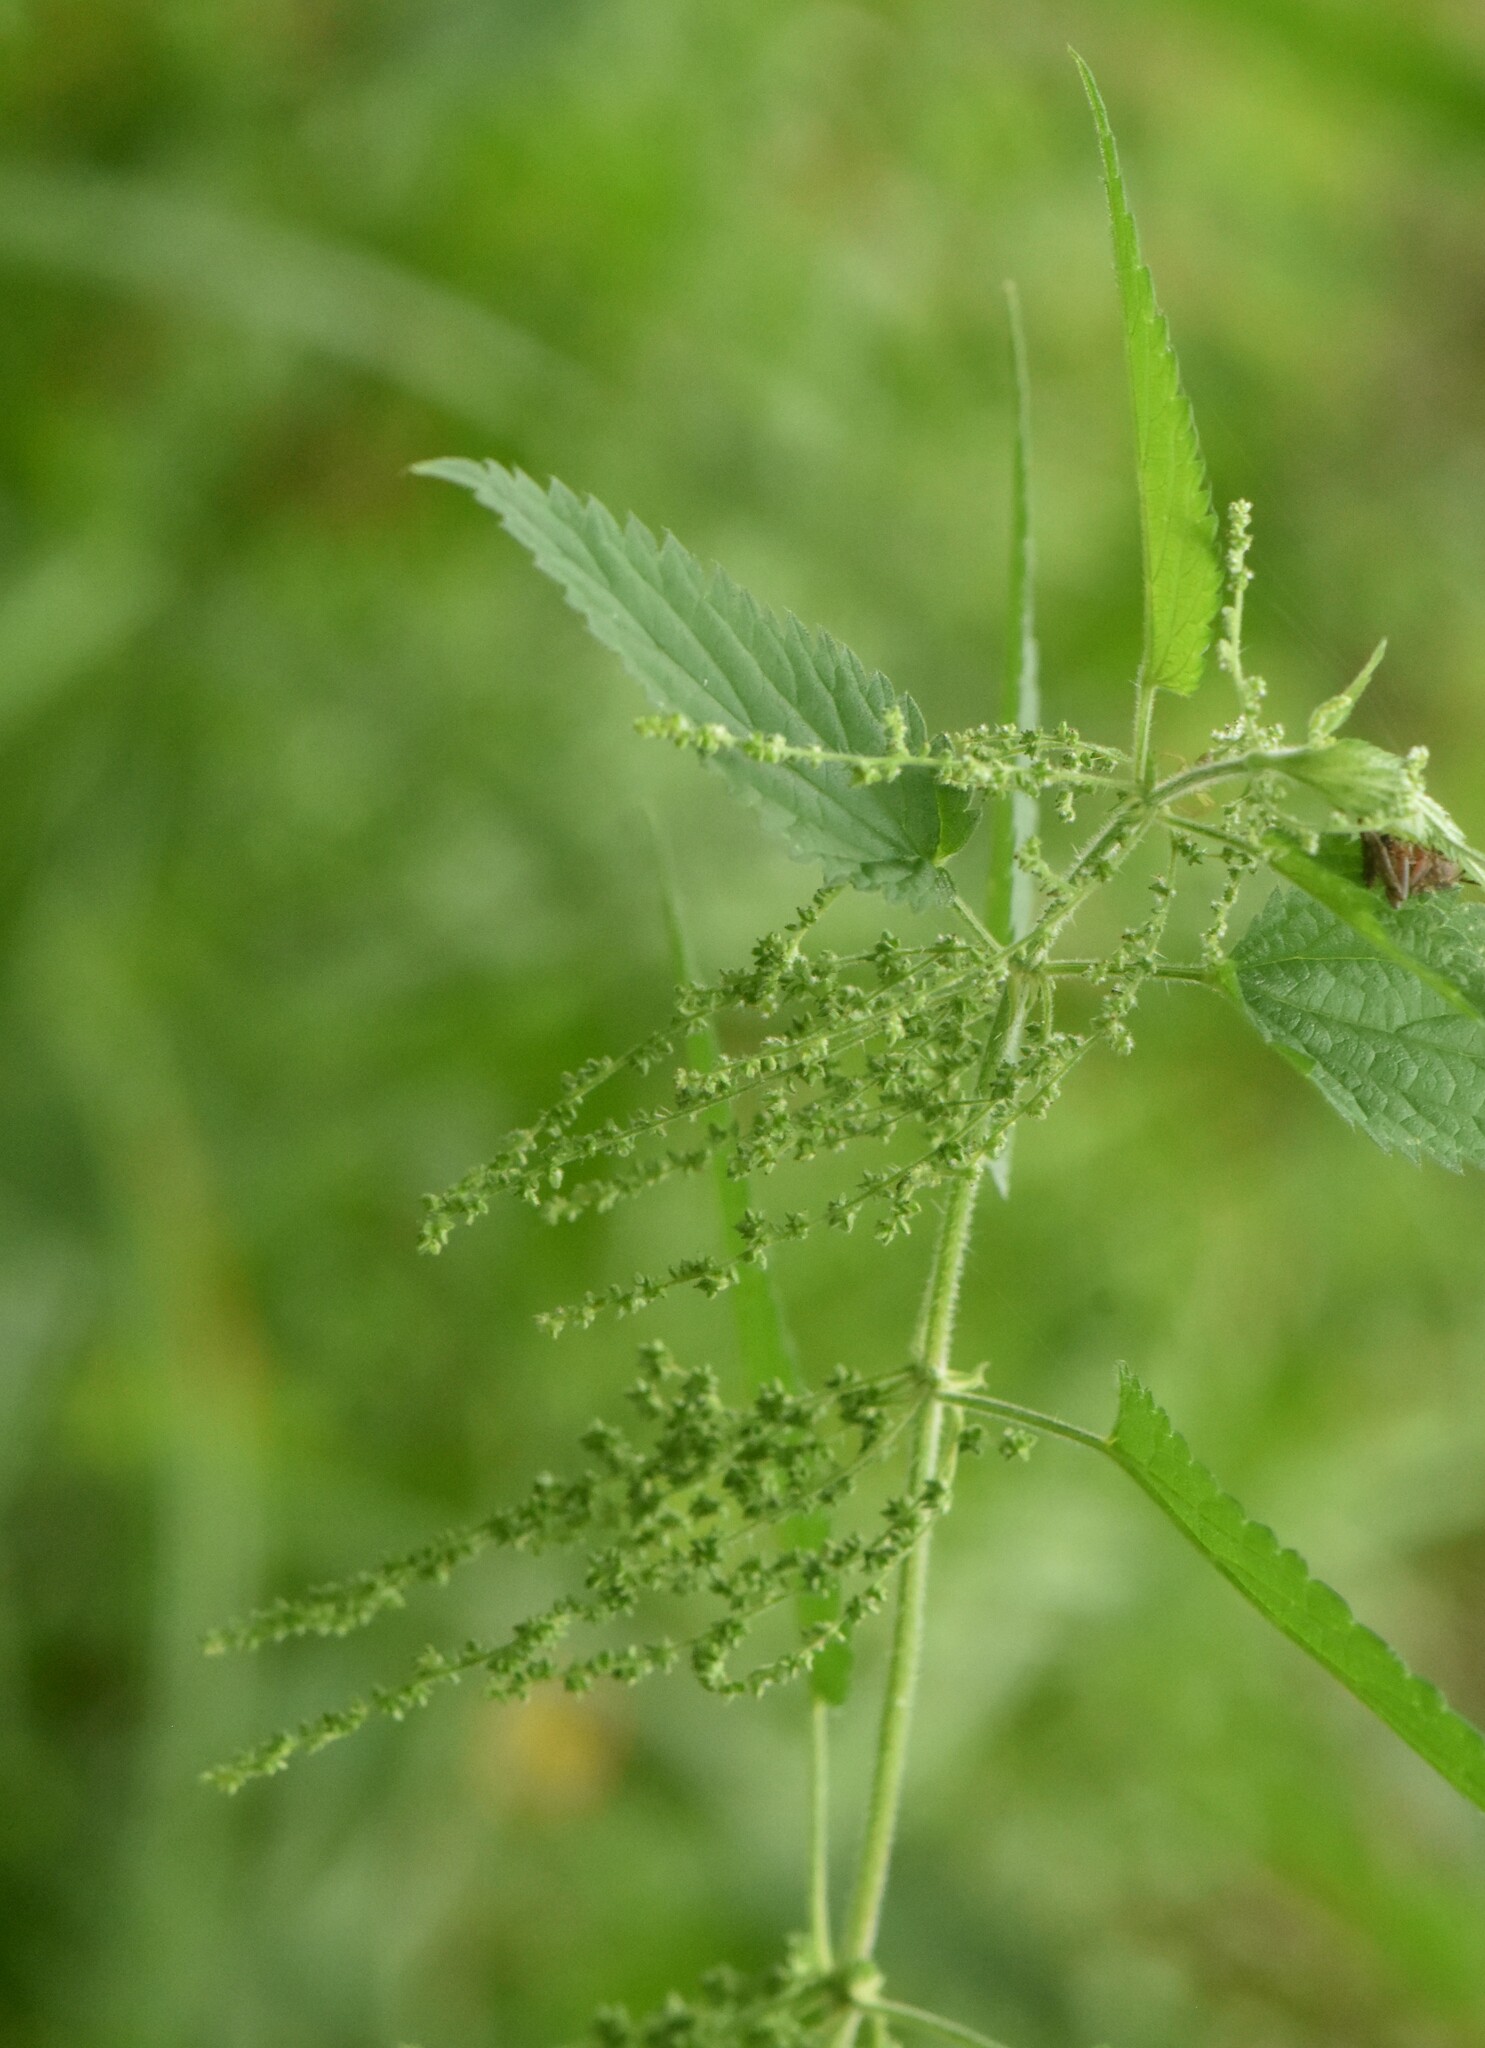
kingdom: Plantae
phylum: Tracheophyta
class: Magnoliopsida
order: Rosales
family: Urticaceae
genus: Urtica
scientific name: Urtica dioica
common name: Common nettle
